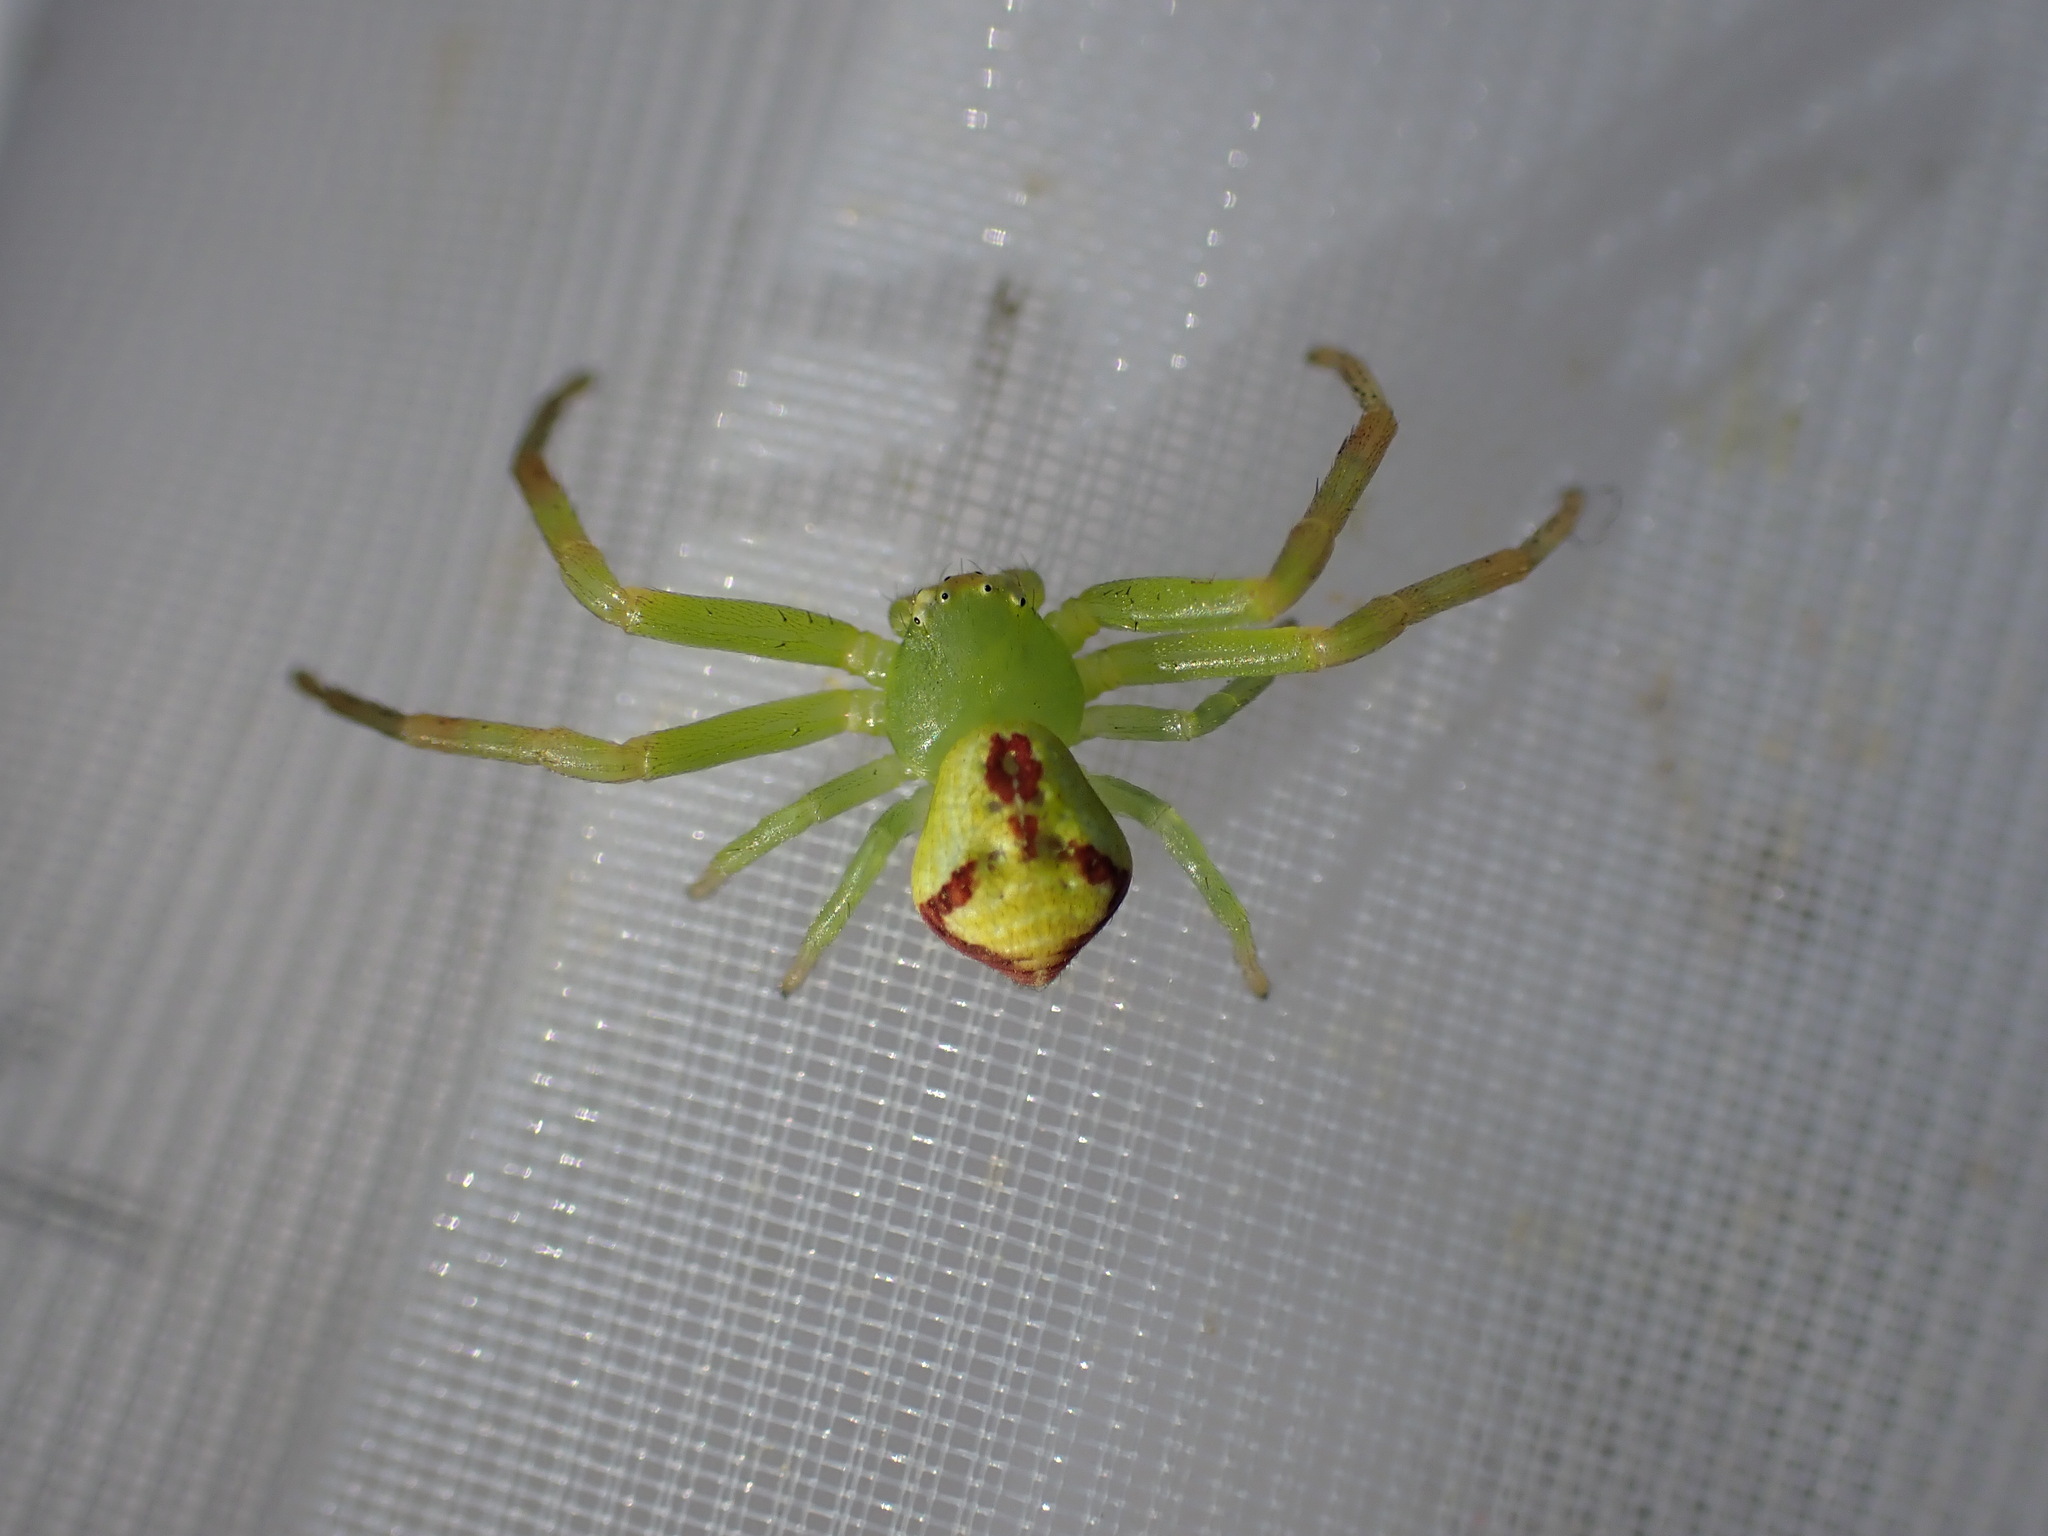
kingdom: Animalia
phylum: Arthropoda
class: Arachnida
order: Araneae
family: Thomisidae
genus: Ebrechtella
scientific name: Ebrechtella tricuspidata
